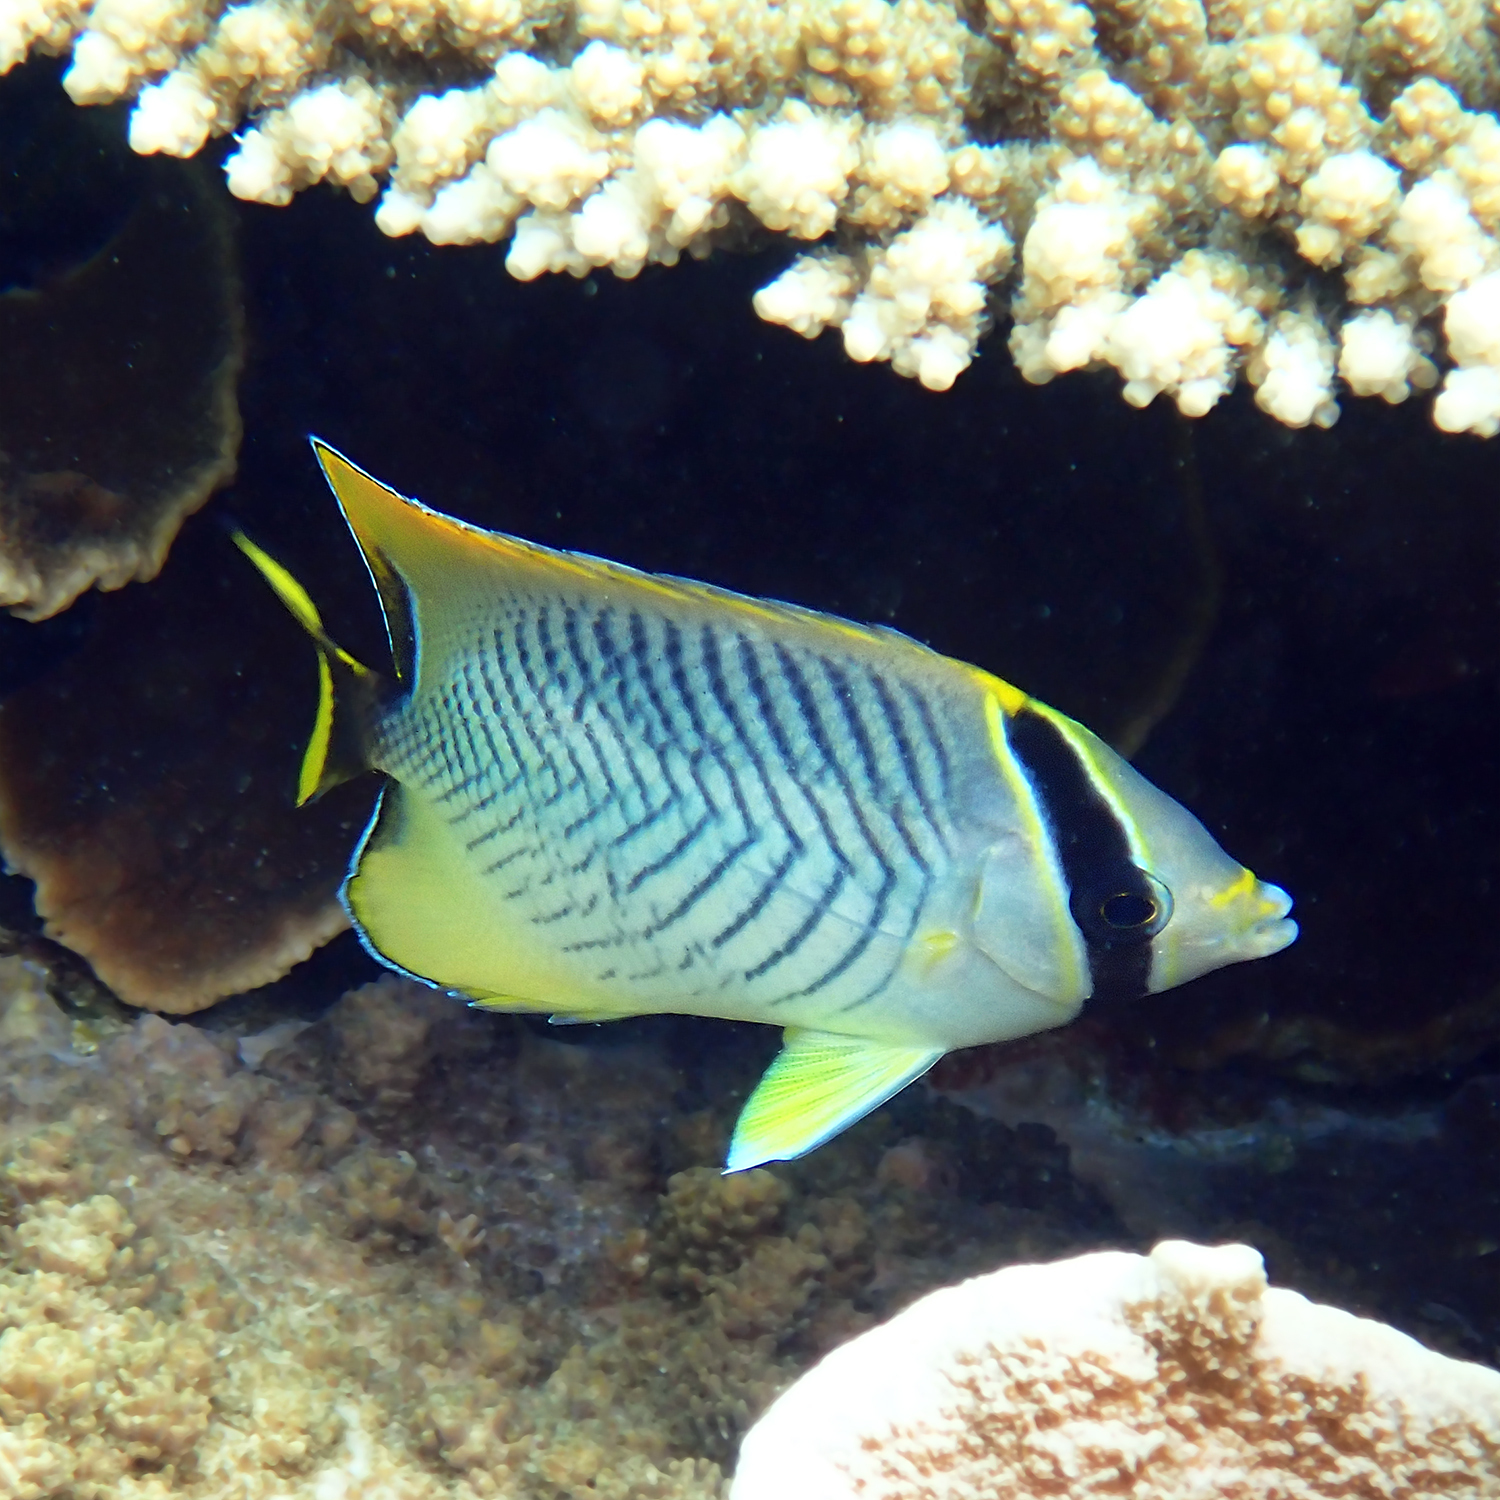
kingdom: Animalia
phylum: Chordata
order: Perciformes
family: Chaetodontidae
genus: Chaetodon
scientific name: Chaetodon trifascialis
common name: Chevroned butterflyfish
